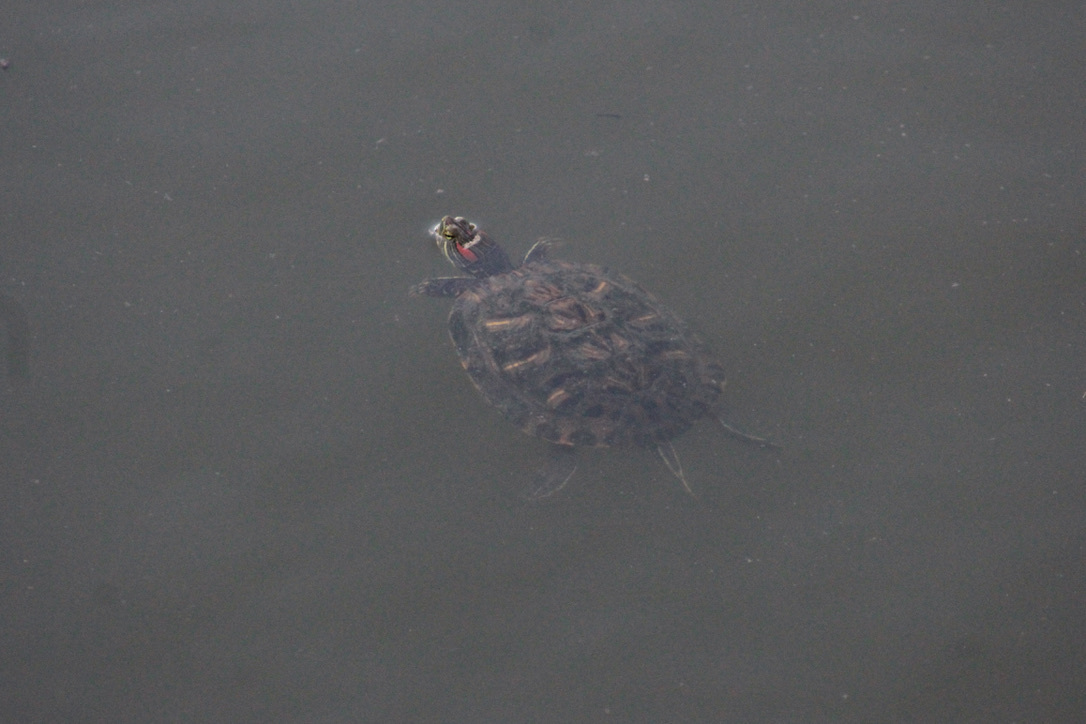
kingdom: Animalia
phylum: Chordata
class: Testudines
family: Emydidae
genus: Trachemys
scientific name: Trachemys scripta
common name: Slider
